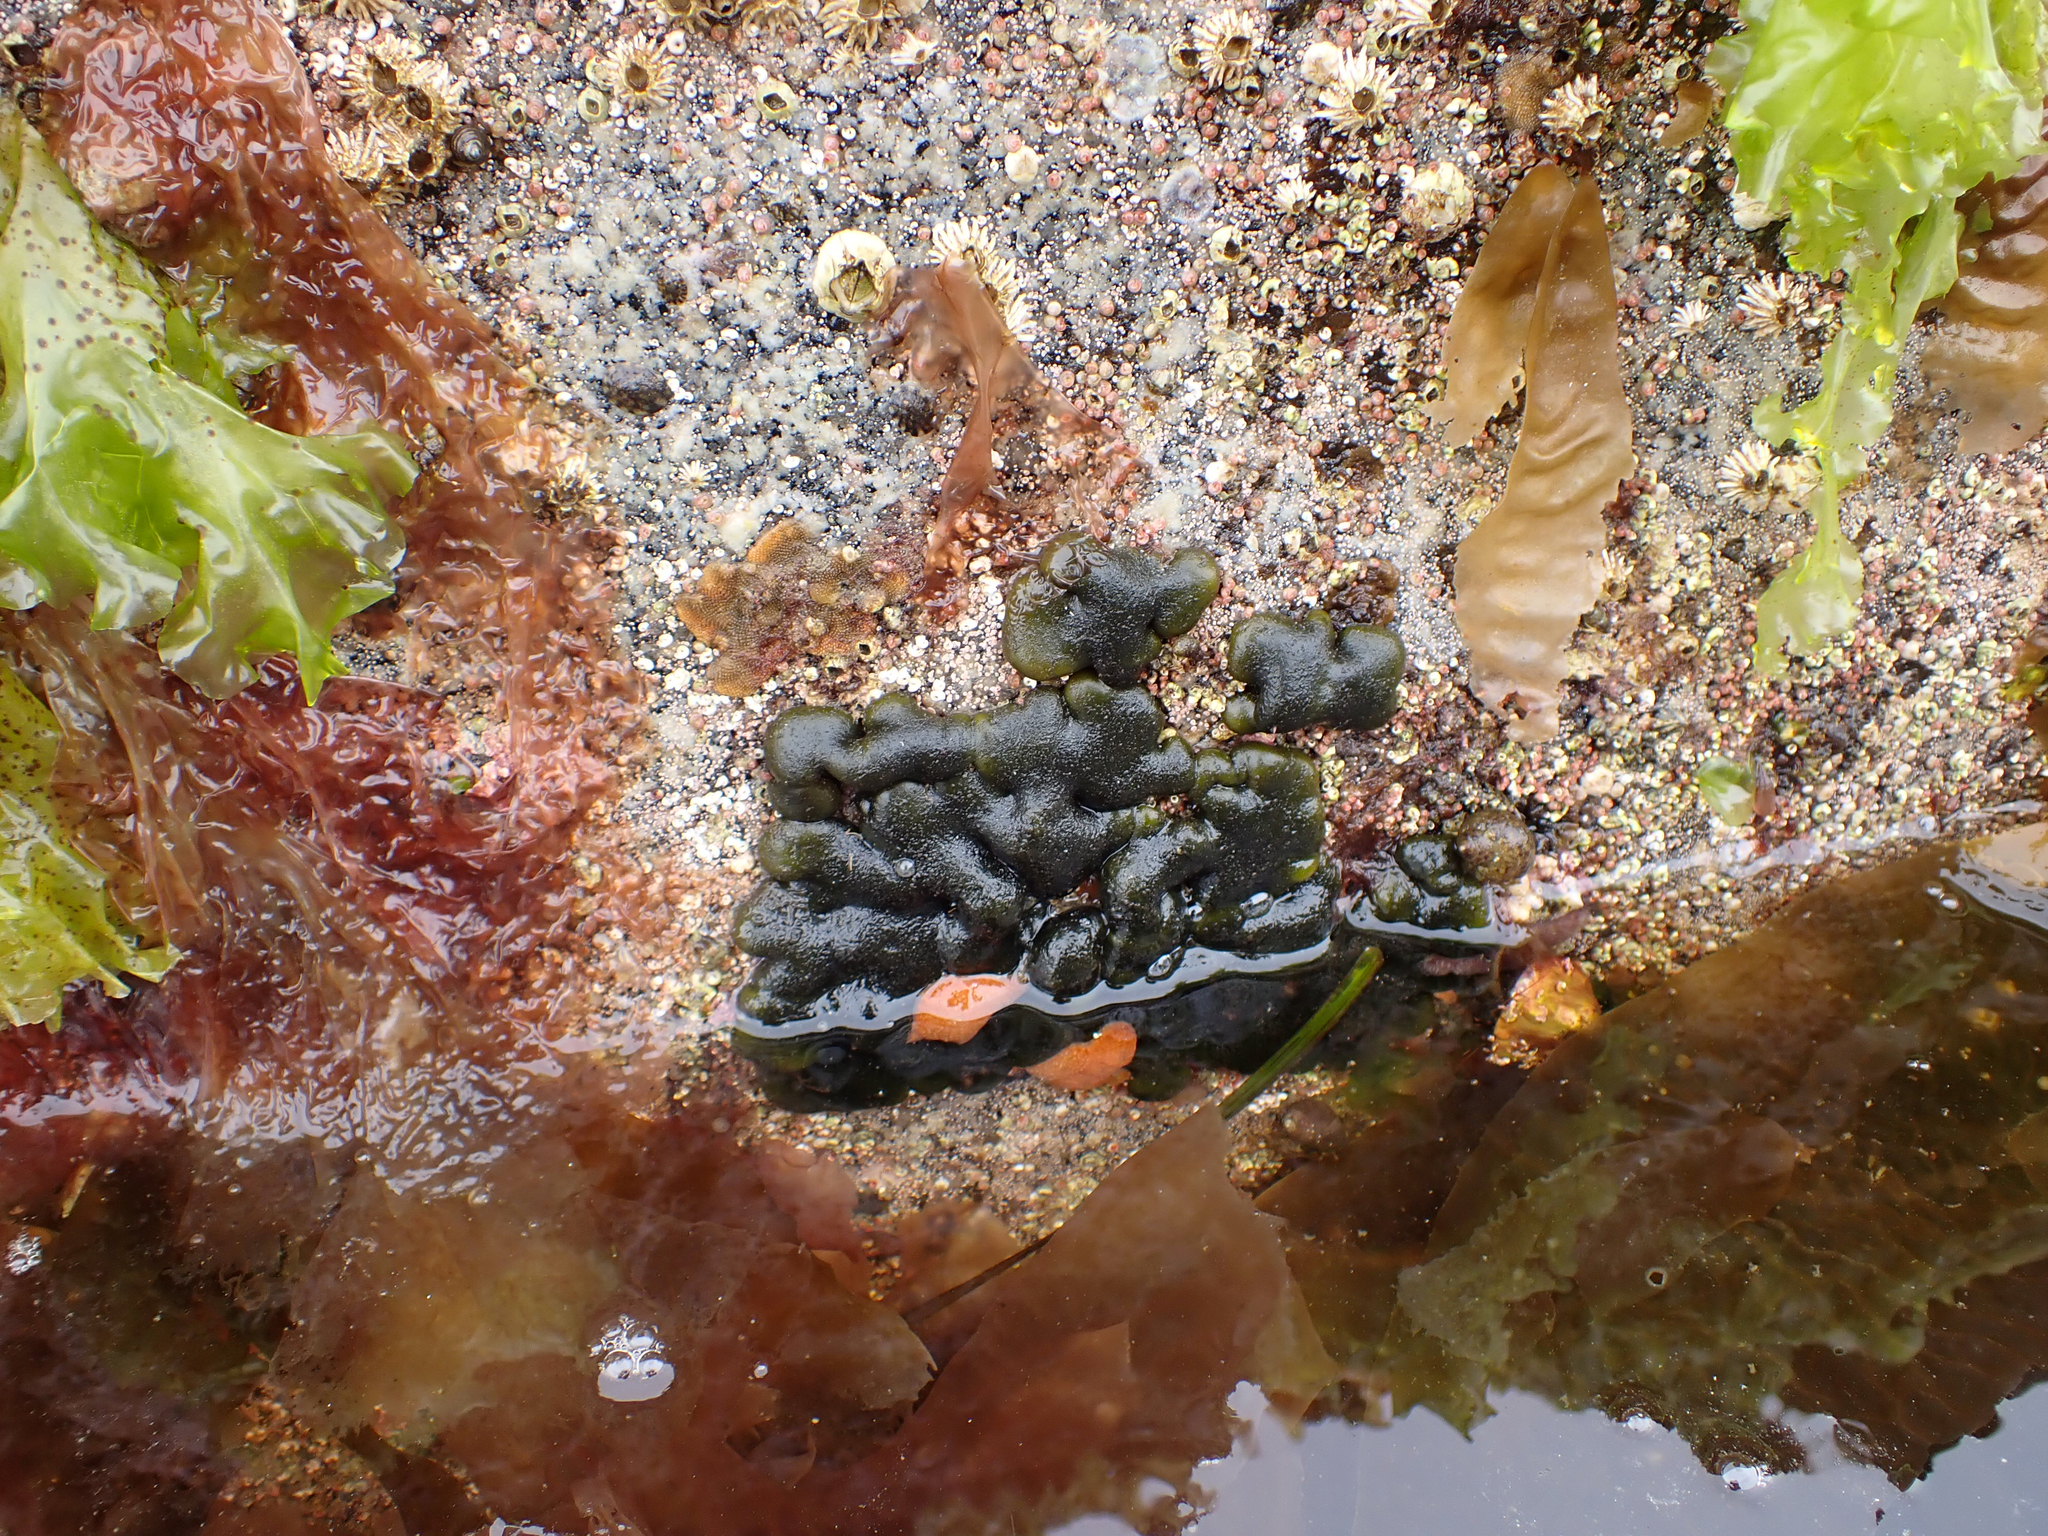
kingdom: Plantae
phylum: Chlorophyta
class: Ulvophyceae
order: Bryopsidales
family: Codiaceae
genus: Codium
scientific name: Codium ritteri
